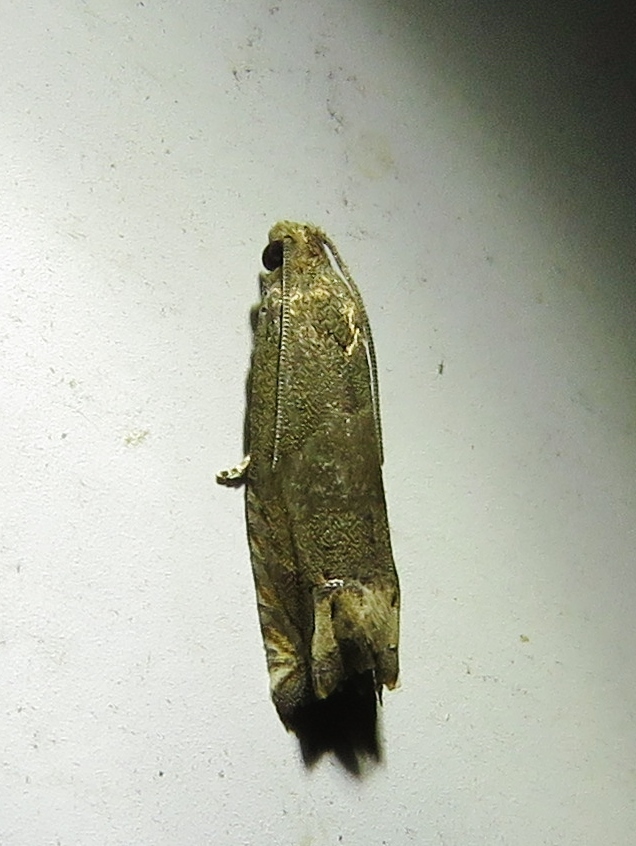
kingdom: Animalia
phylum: Arthropoda
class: Insecta
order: Lepidoptera
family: Tortricidae
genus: Epiblema
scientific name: Epiblema strenuana
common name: Ragweed borer moth
